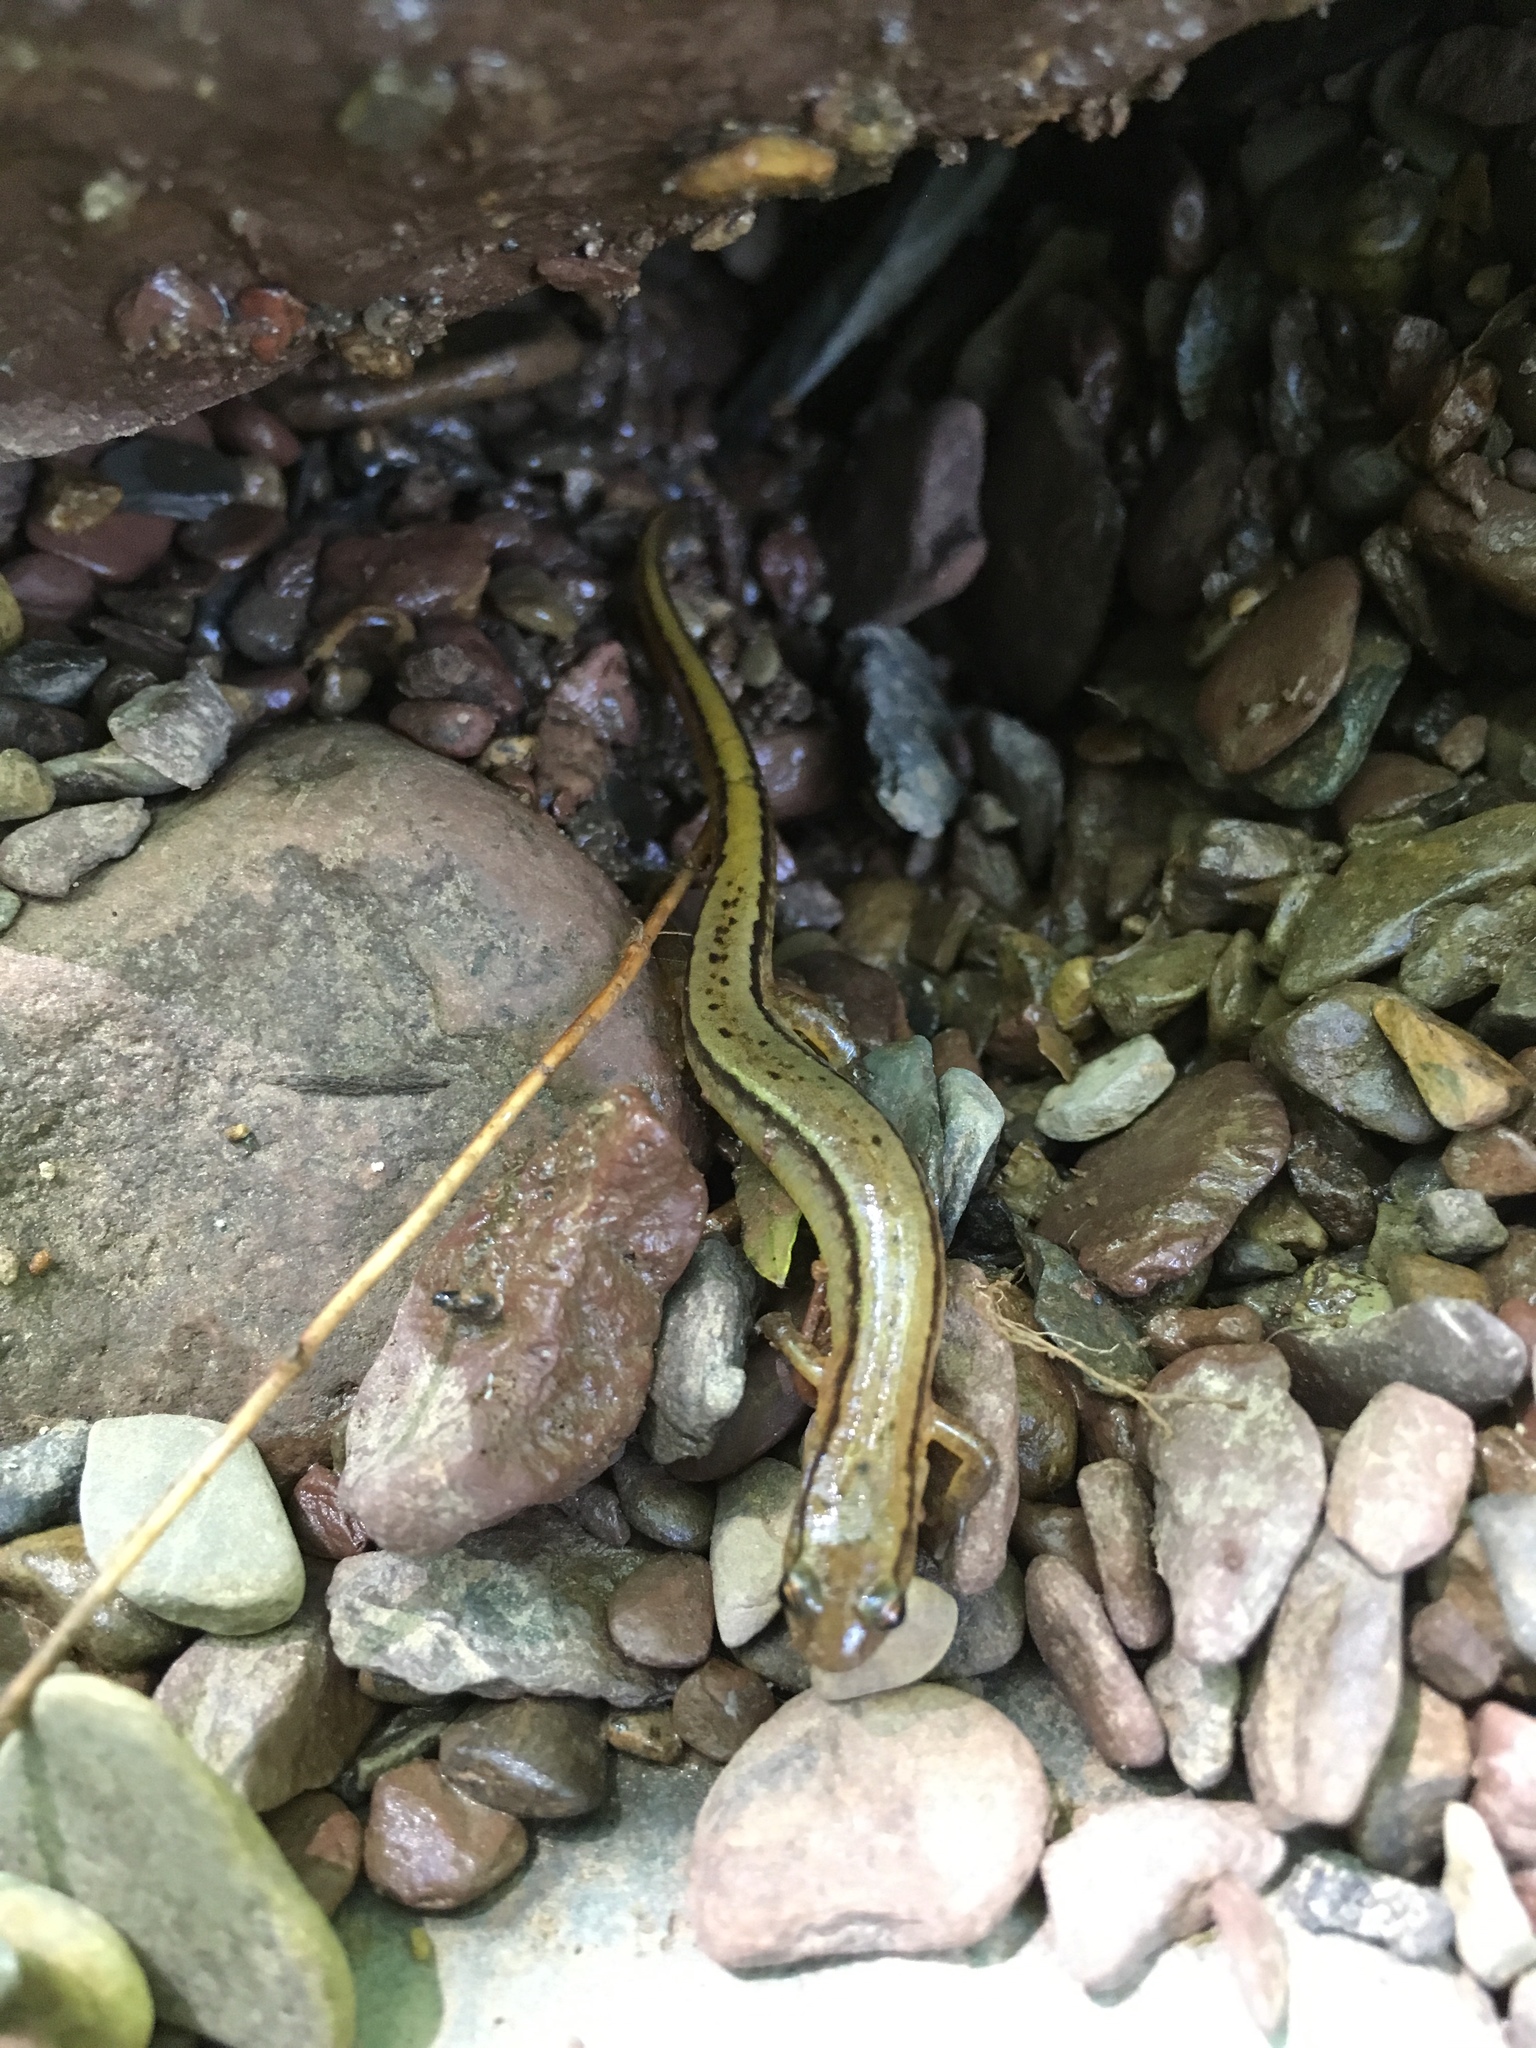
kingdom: Animalia
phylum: Chordata
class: Amphibia
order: Caudata
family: Plethodontidae
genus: Eurycea
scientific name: Eurycea bislineata
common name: Northern two-lined salamander
